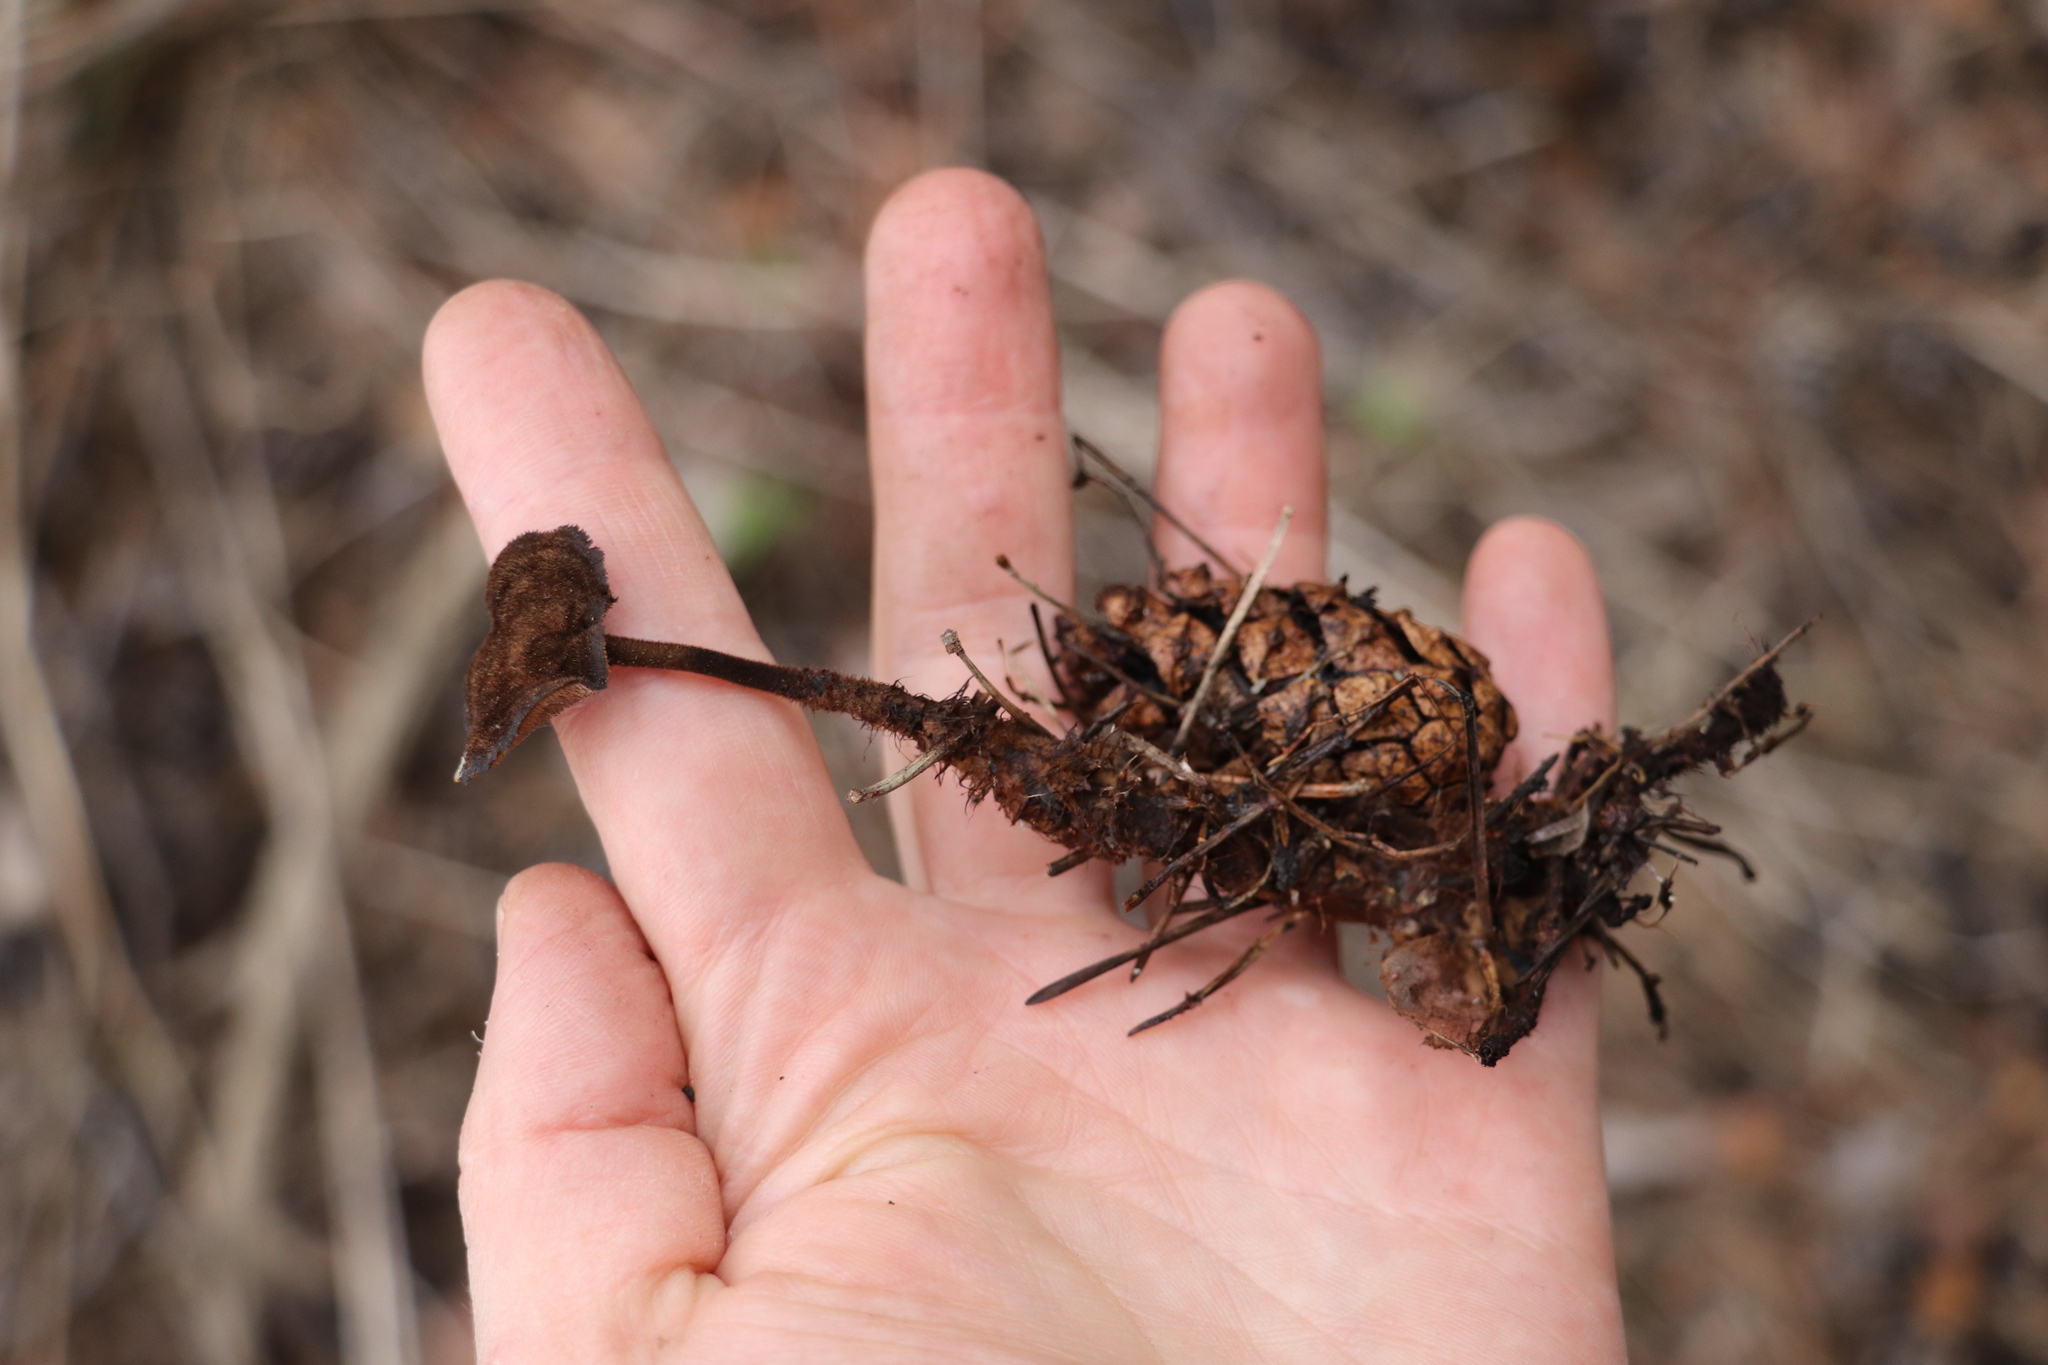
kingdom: Fungi
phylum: Basidiomycota
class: Agaricomycetes
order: Russulales
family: Auriscalpiaceae
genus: Auriscalpium
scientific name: Auriscalpium vulgare
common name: Earpick fungus
